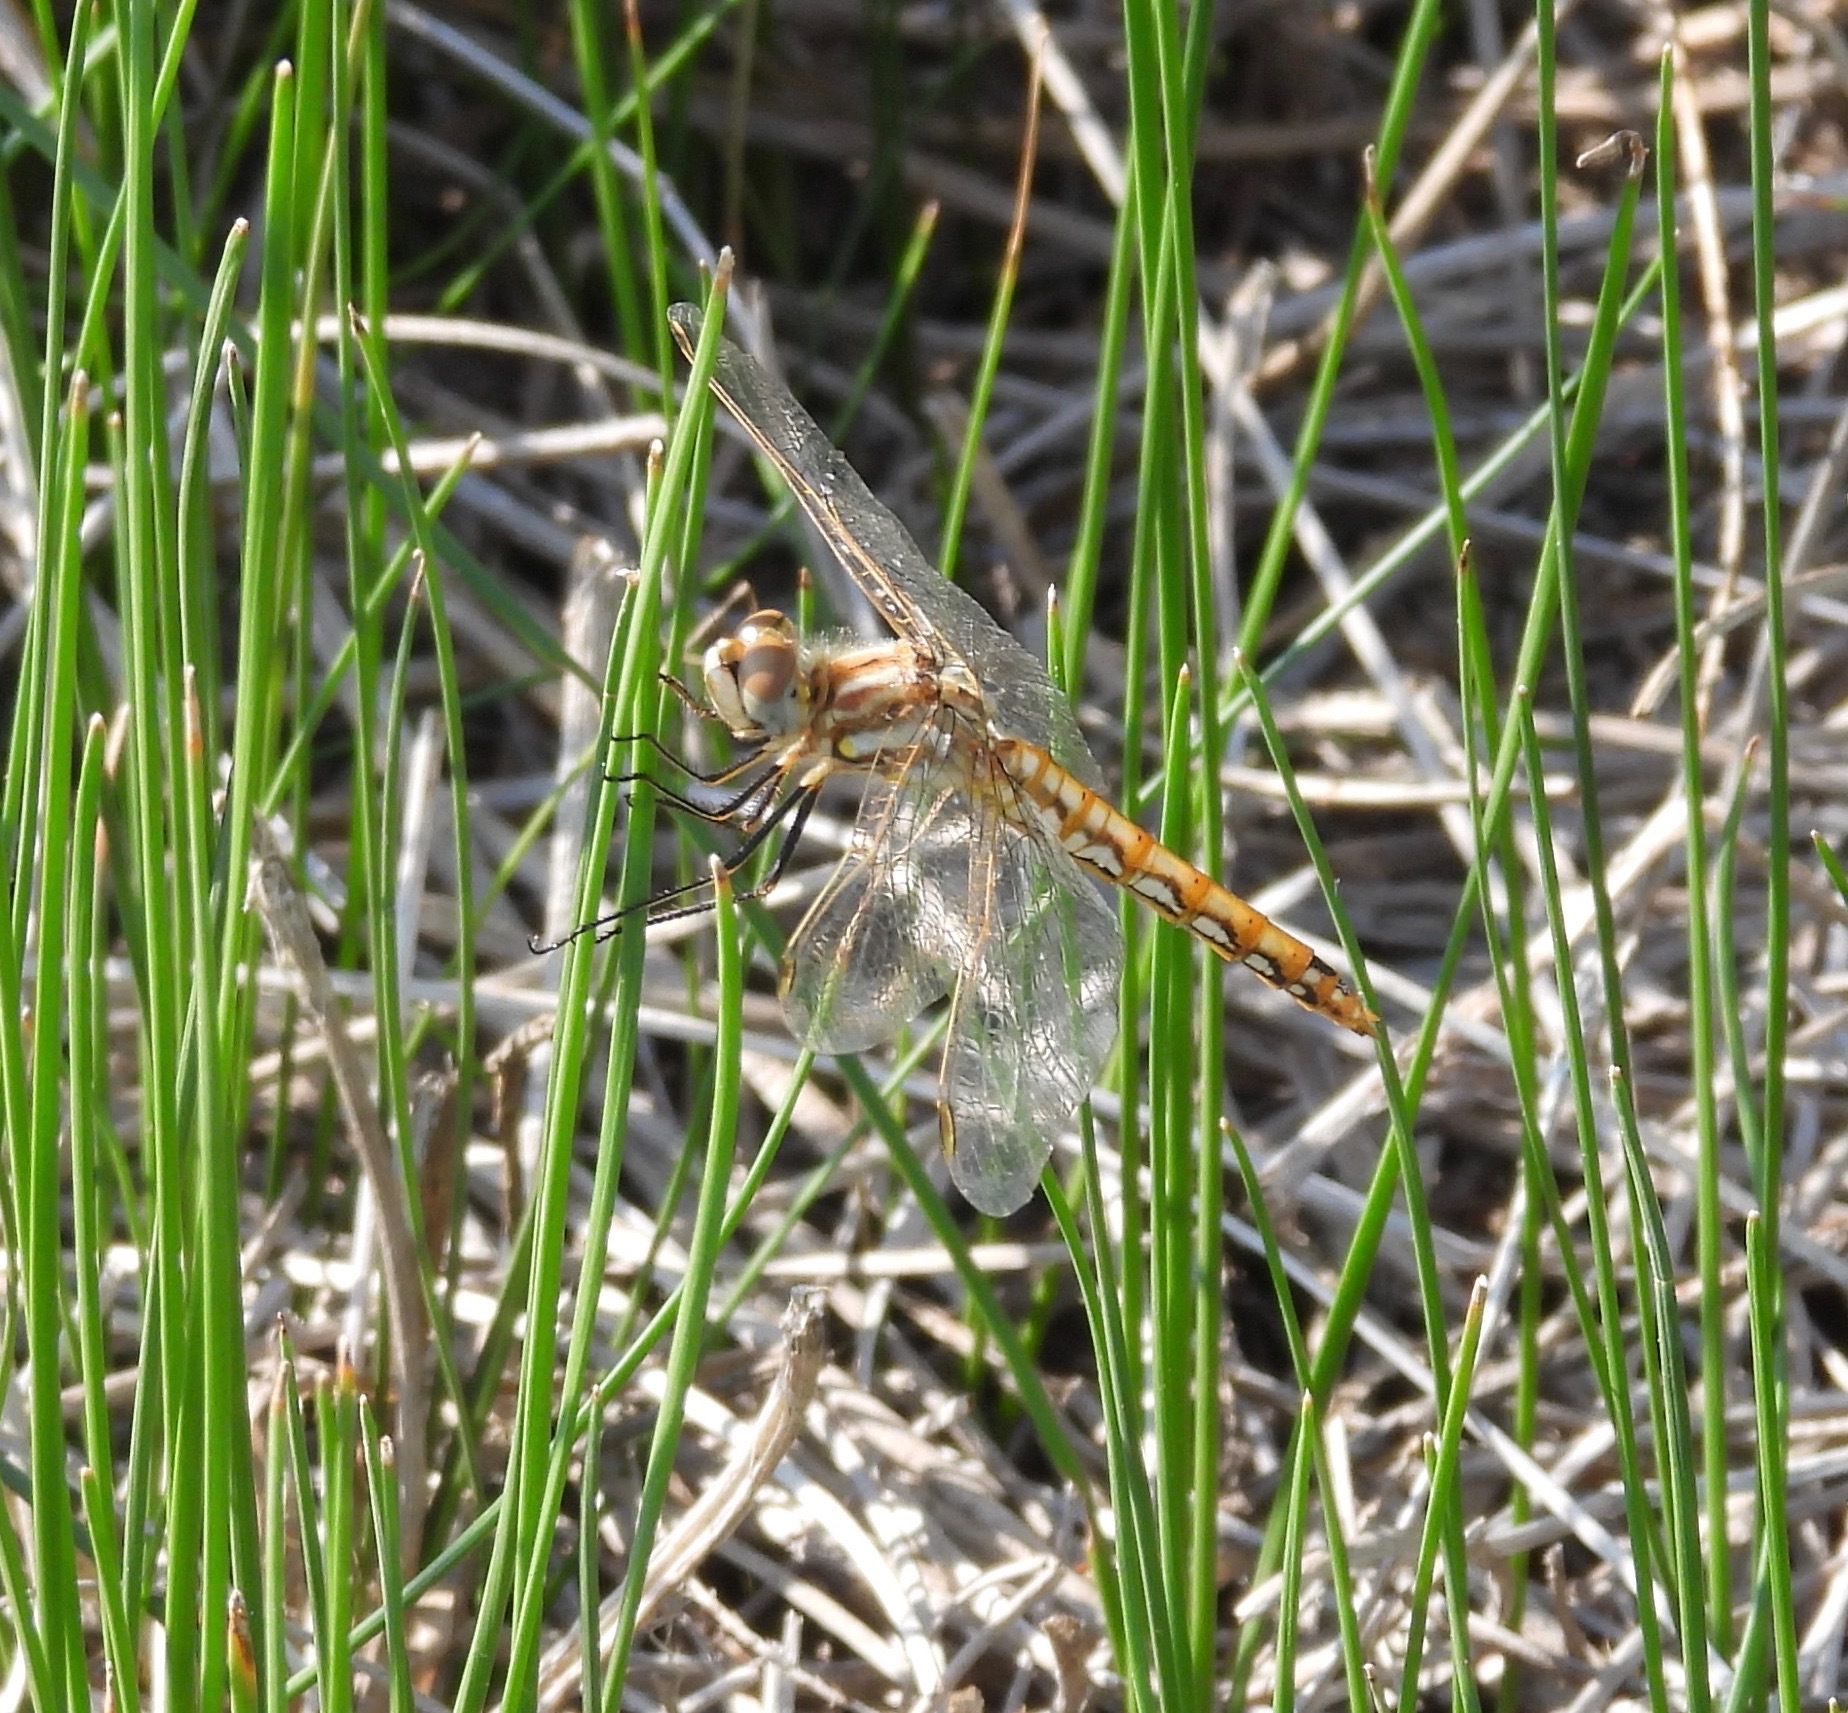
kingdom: Animalia
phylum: Arthropoda
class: Insecta
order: Odonata
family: Libellulidae
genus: Sympetrum
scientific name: Sympetrum corruptum
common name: Variegated meadowhawk
